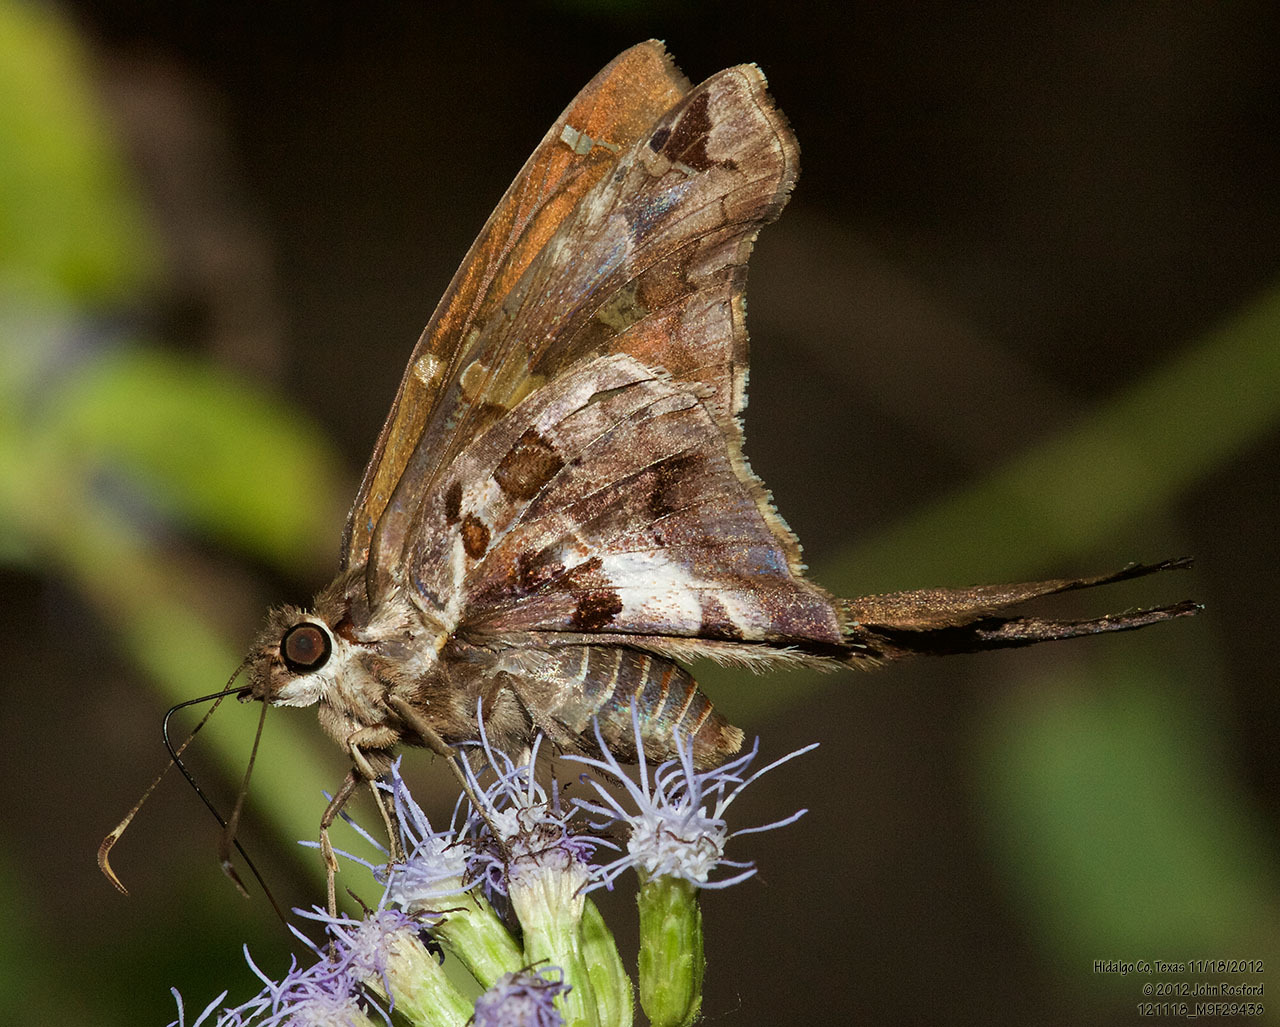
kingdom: Animalia
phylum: Arthropoda
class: Insecta
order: Lepidoptera
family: Hesperiidae
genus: Chioides
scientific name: Chioides zilpa
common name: Zilpa longtail
